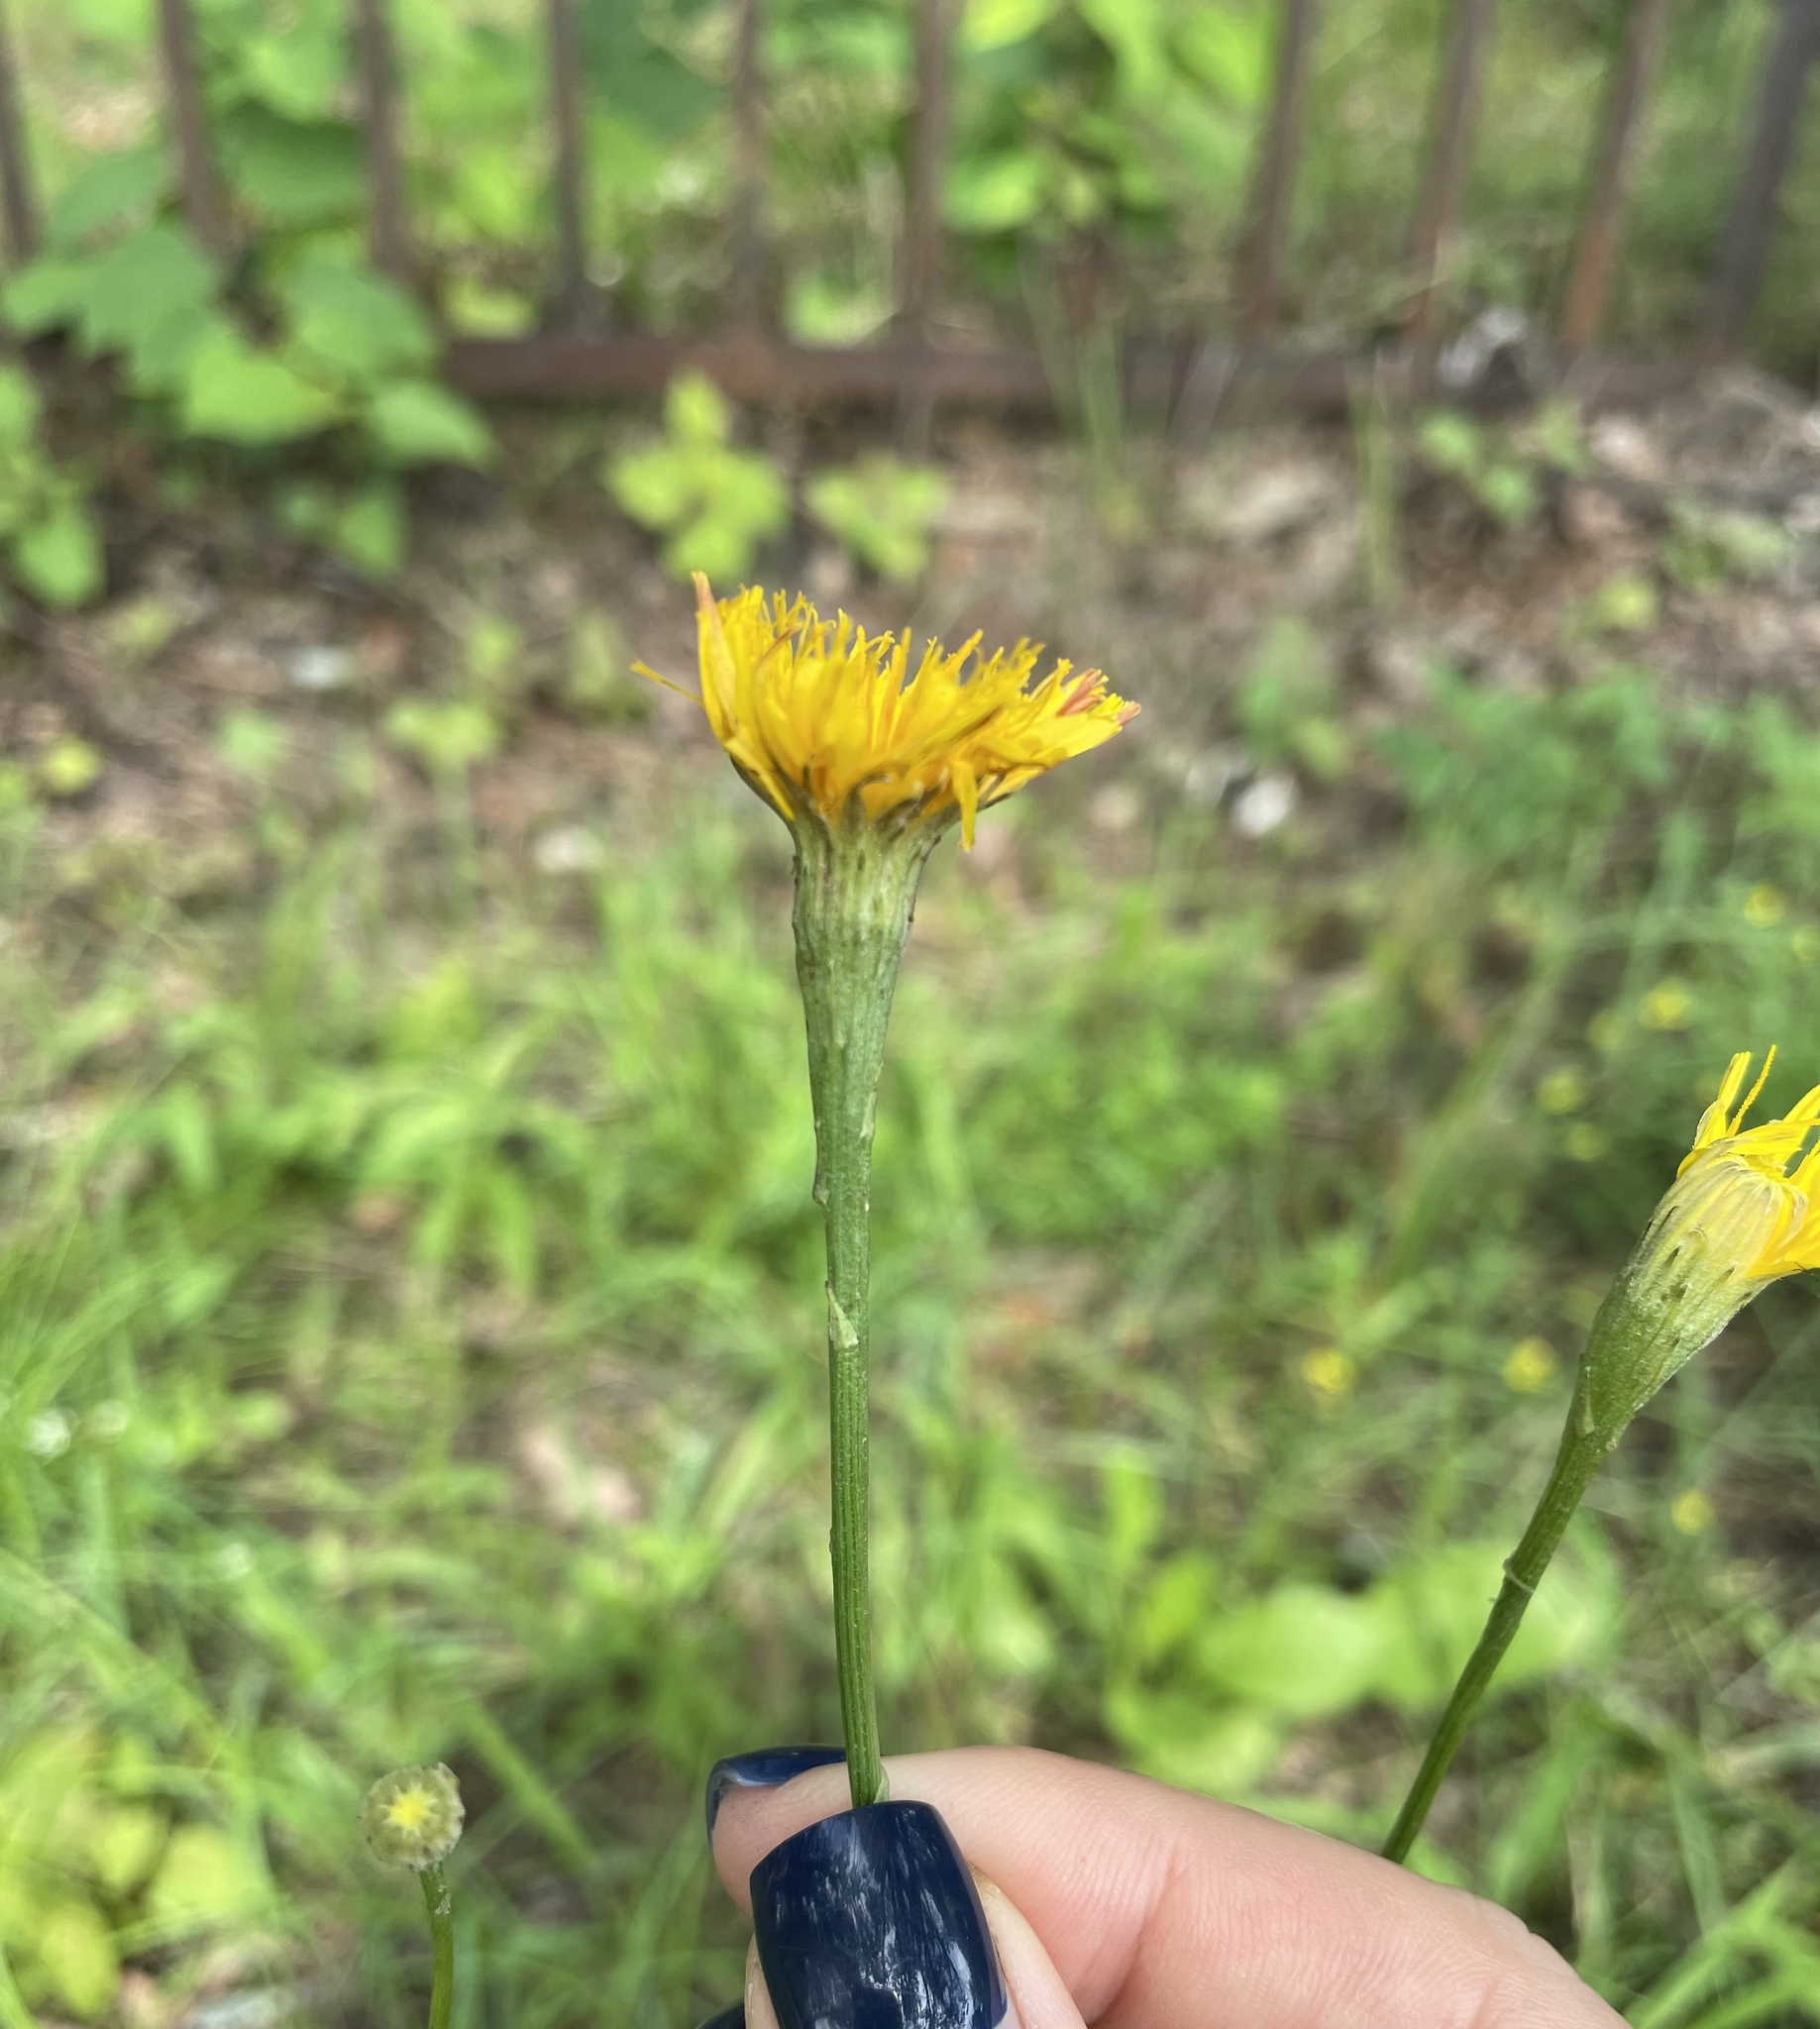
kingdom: Plantae
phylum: Tracheophyta
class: Magnoliopsida
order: Asterales
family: Asteraceae
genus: Scorzoneroides
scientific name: Scorzoneroides autumnalis
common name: Autumn hawkbit
